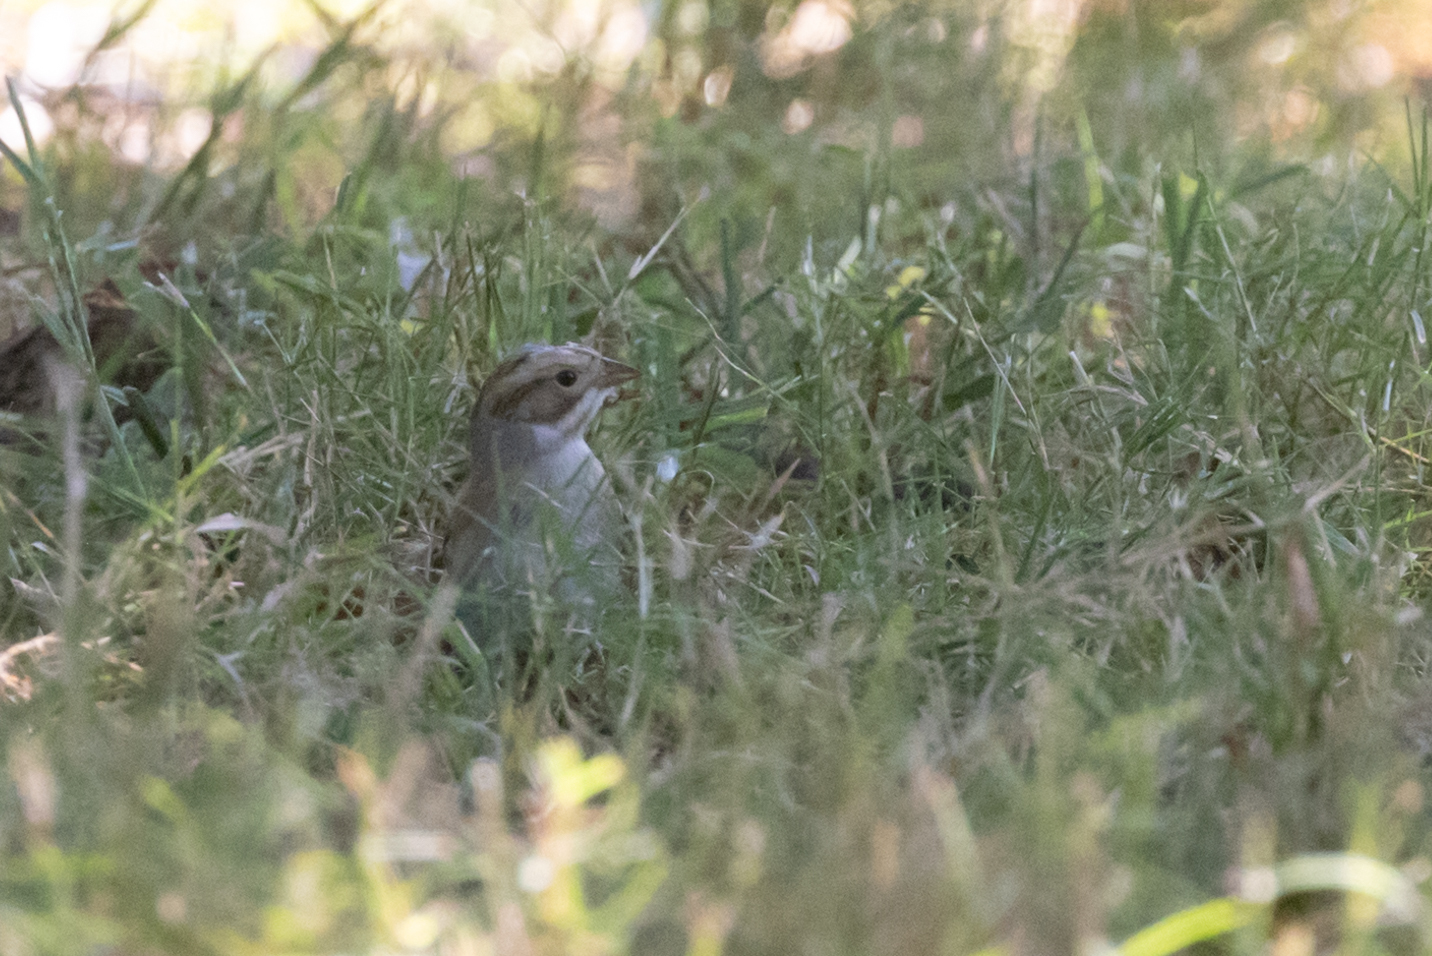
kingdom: Animalia
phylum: Chordata
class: Aves
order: Passeriformes
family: Passerellidae
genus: Spizella
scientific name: Spizella pallida
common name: Clay-colored sparrow
